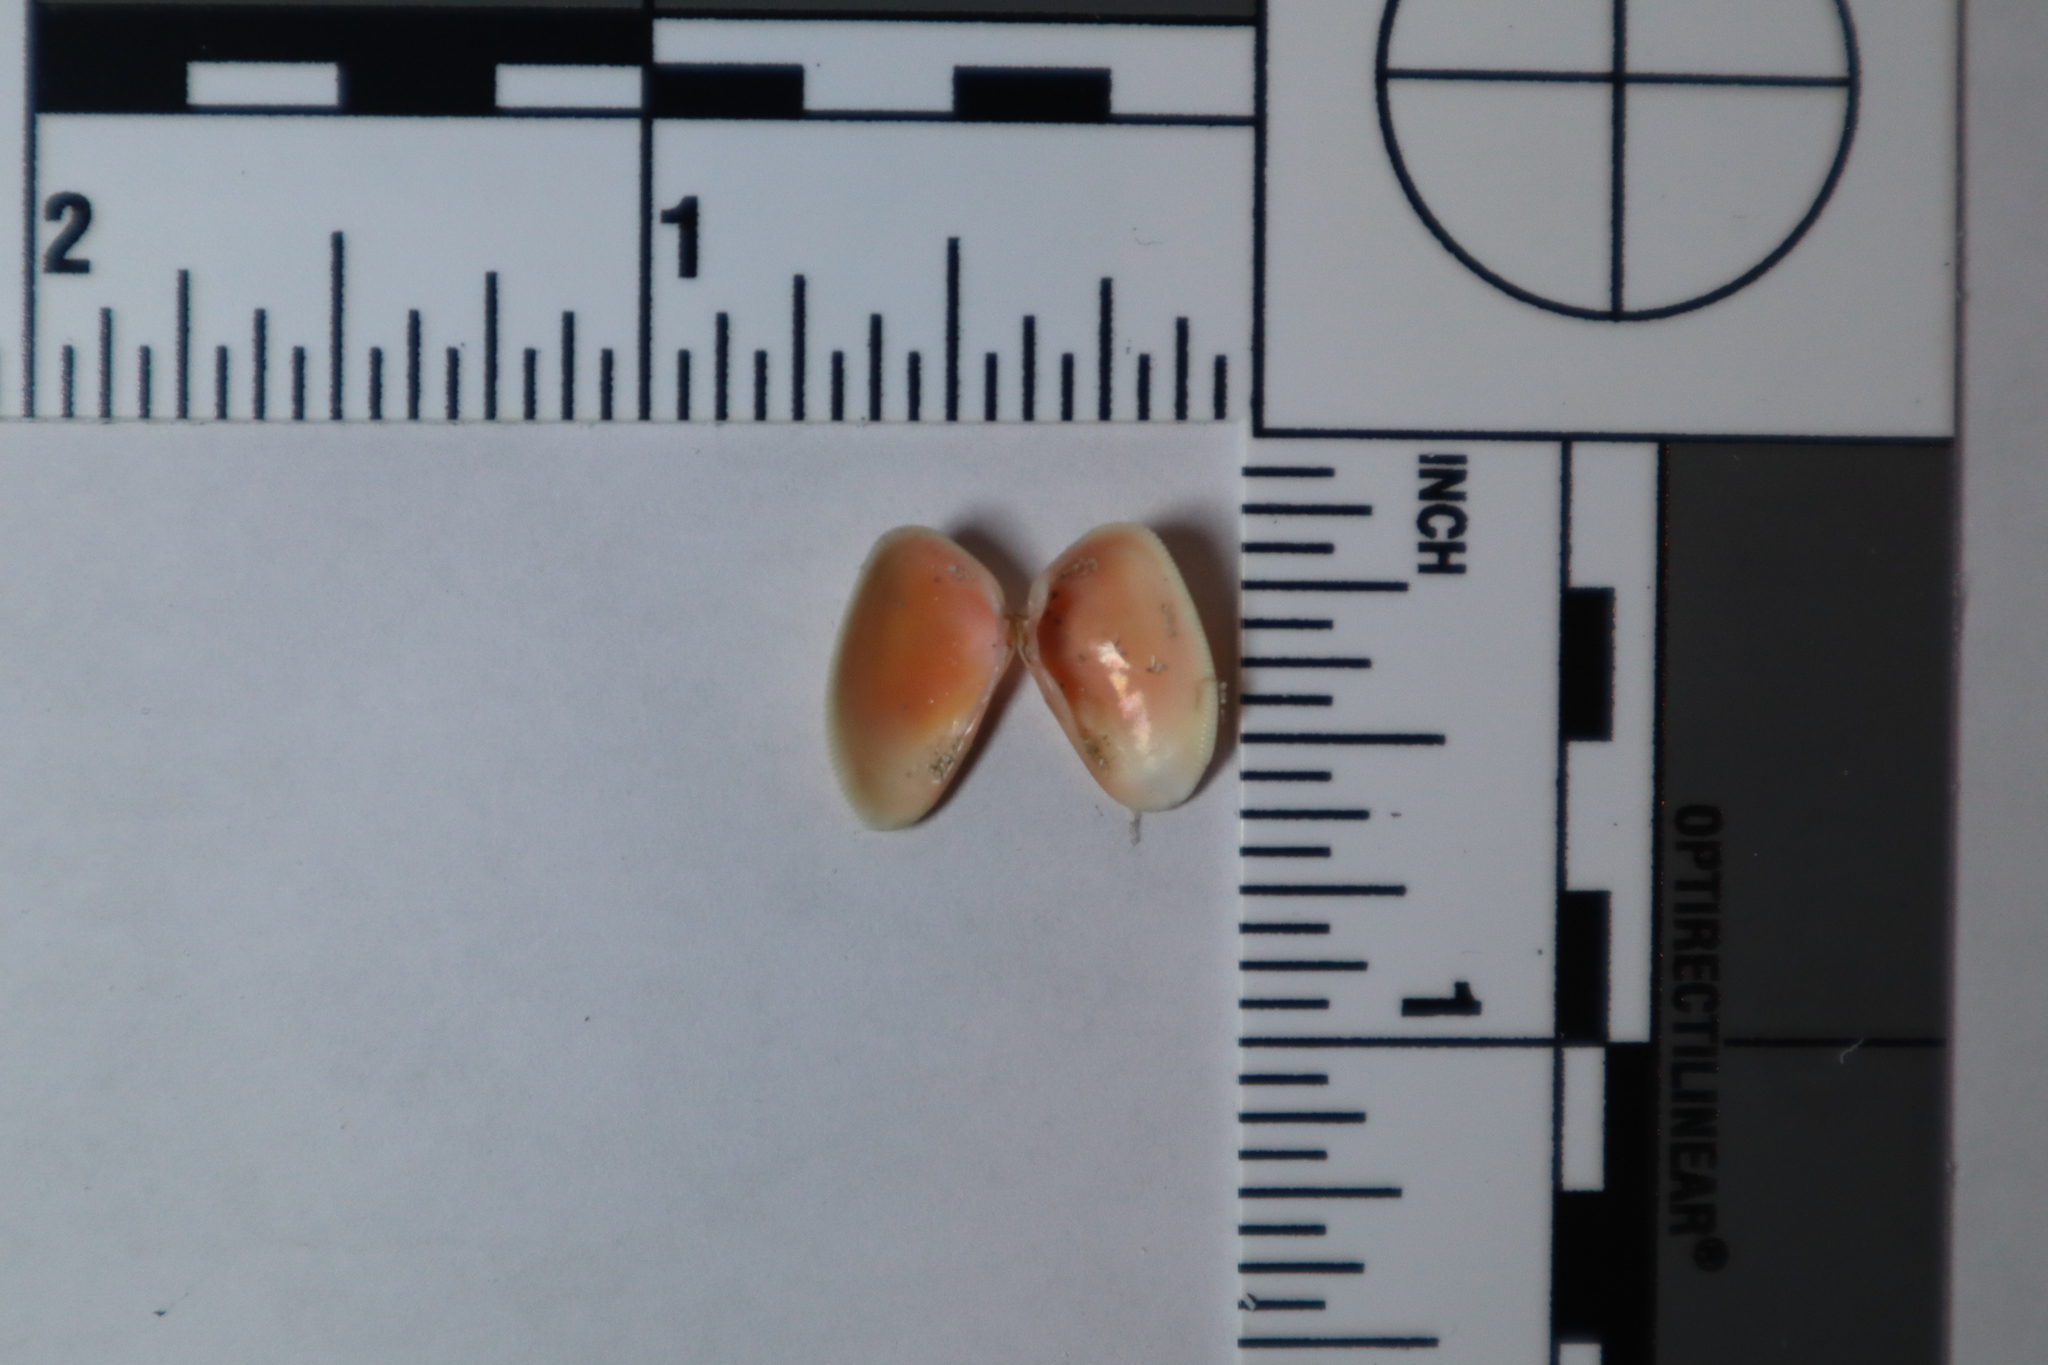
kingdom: Animalia
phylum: Mollusca
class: Bivalvia
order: Cardiida
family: Donacidae
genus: Donax
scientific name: Donax variabilis
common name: Butterfly shell
